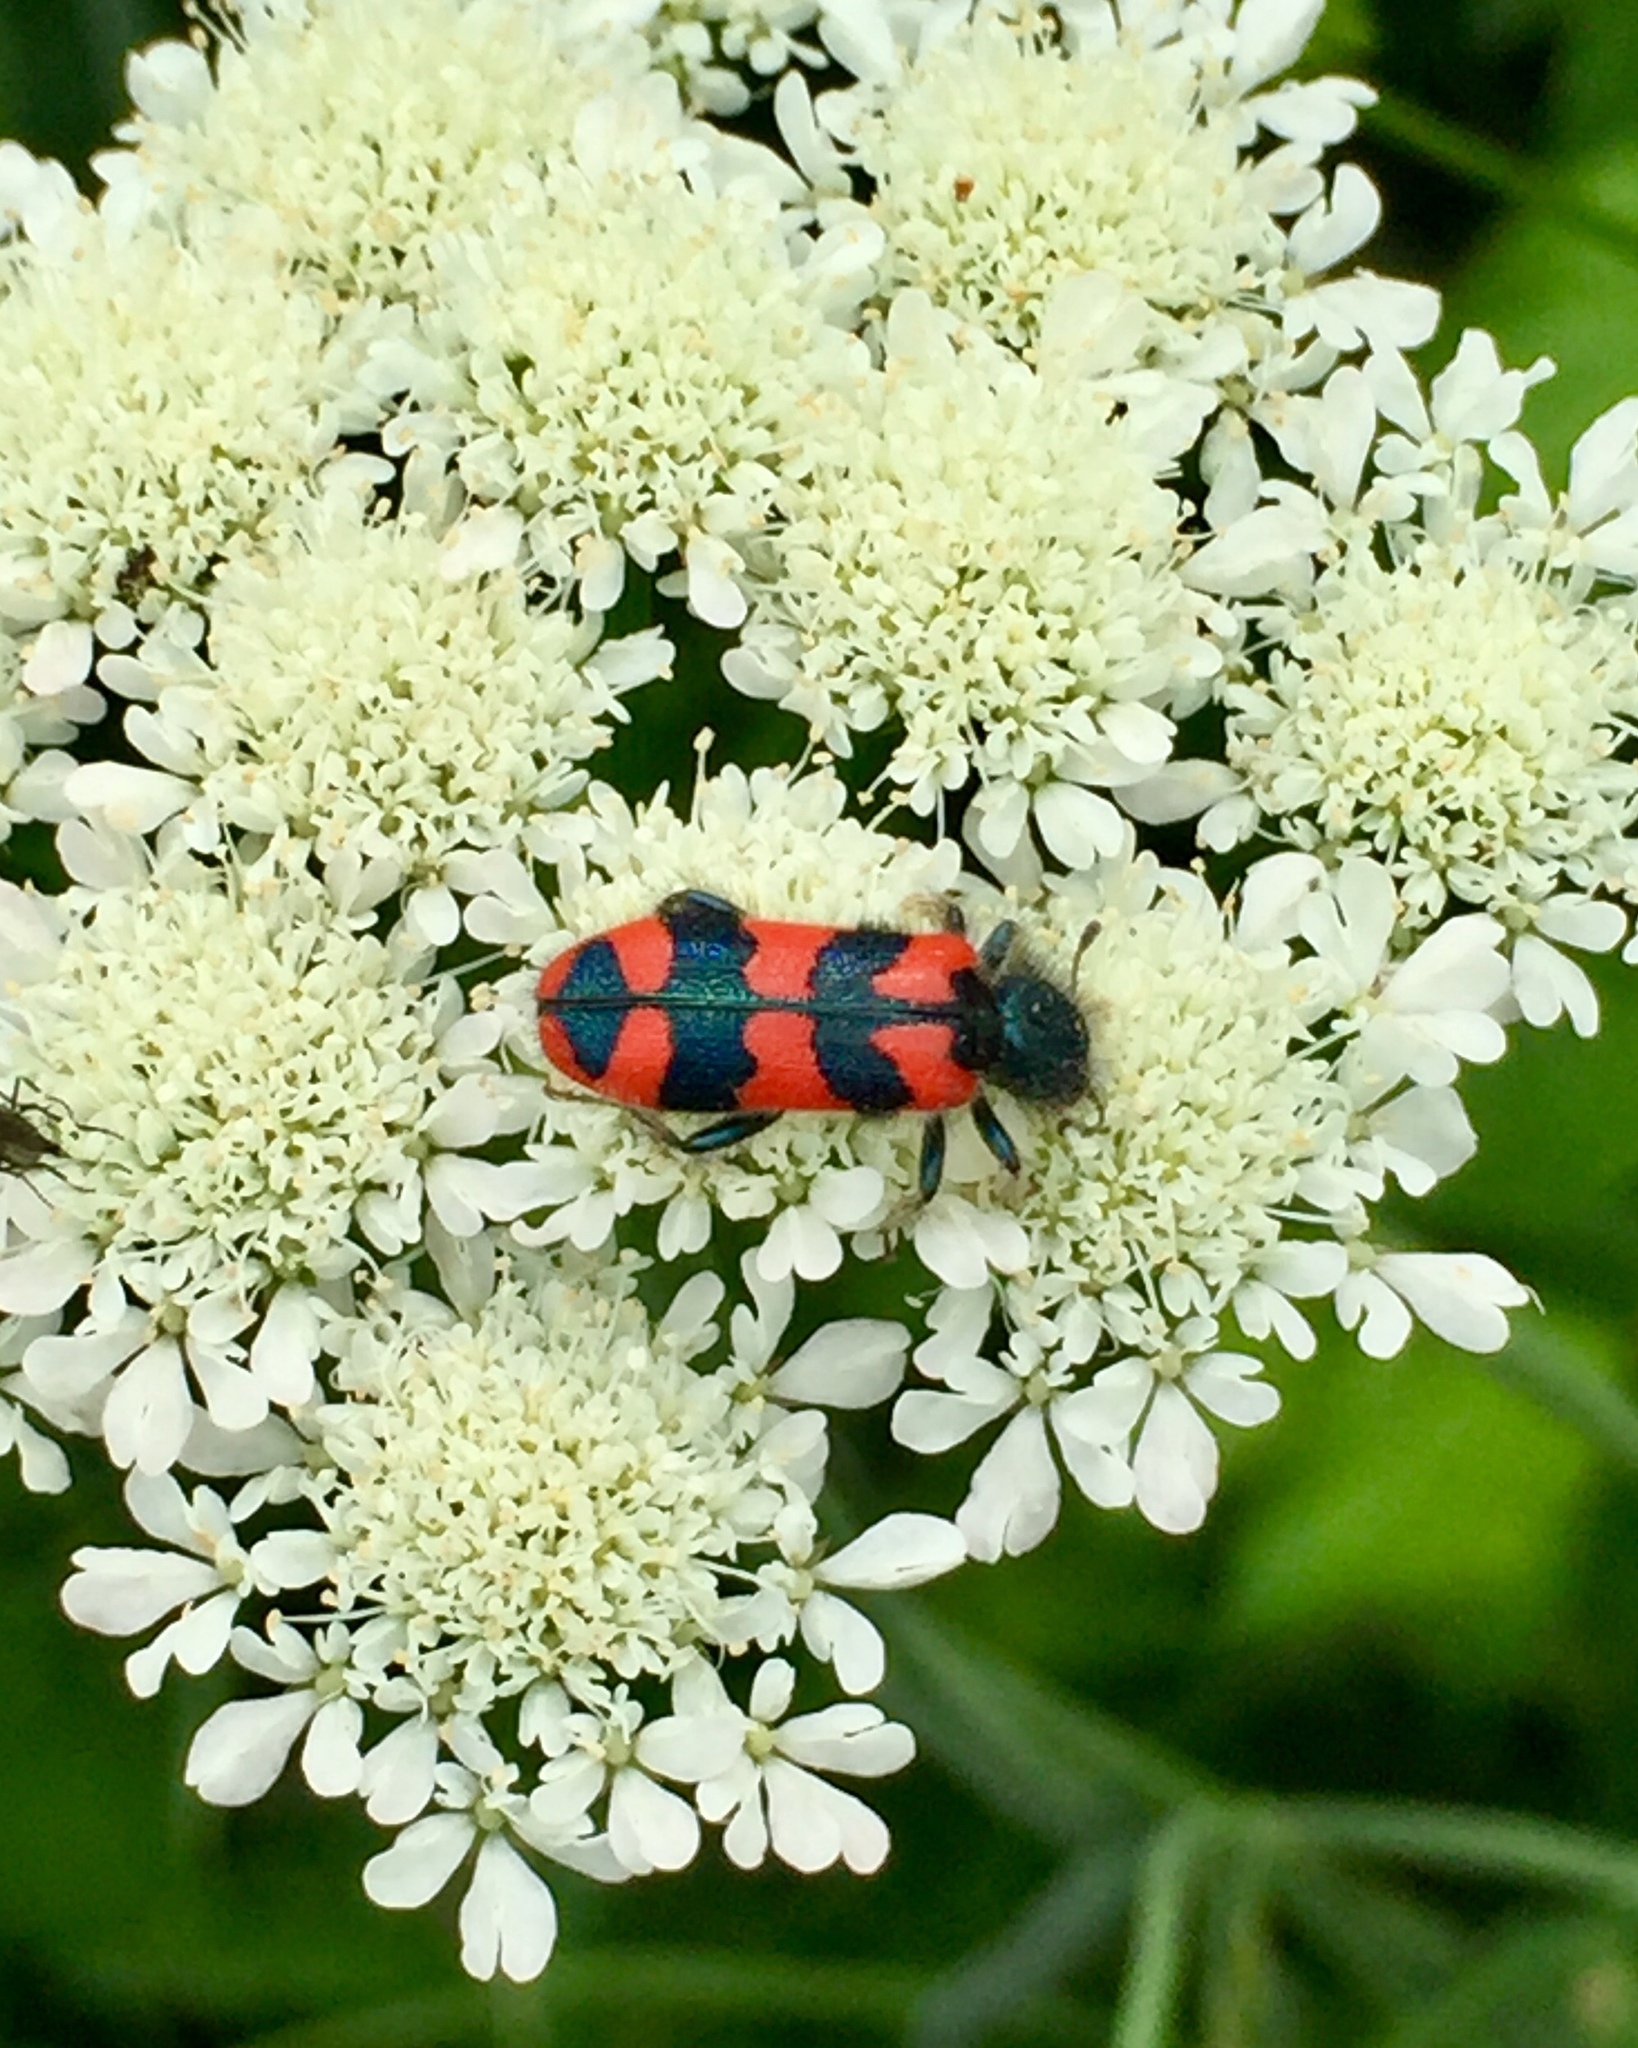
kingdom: Animalia
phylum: Arthropoda
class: Insecta
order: Coleoptera
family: Cleridae
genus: Trichodes
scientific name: Trichodes alvearius
